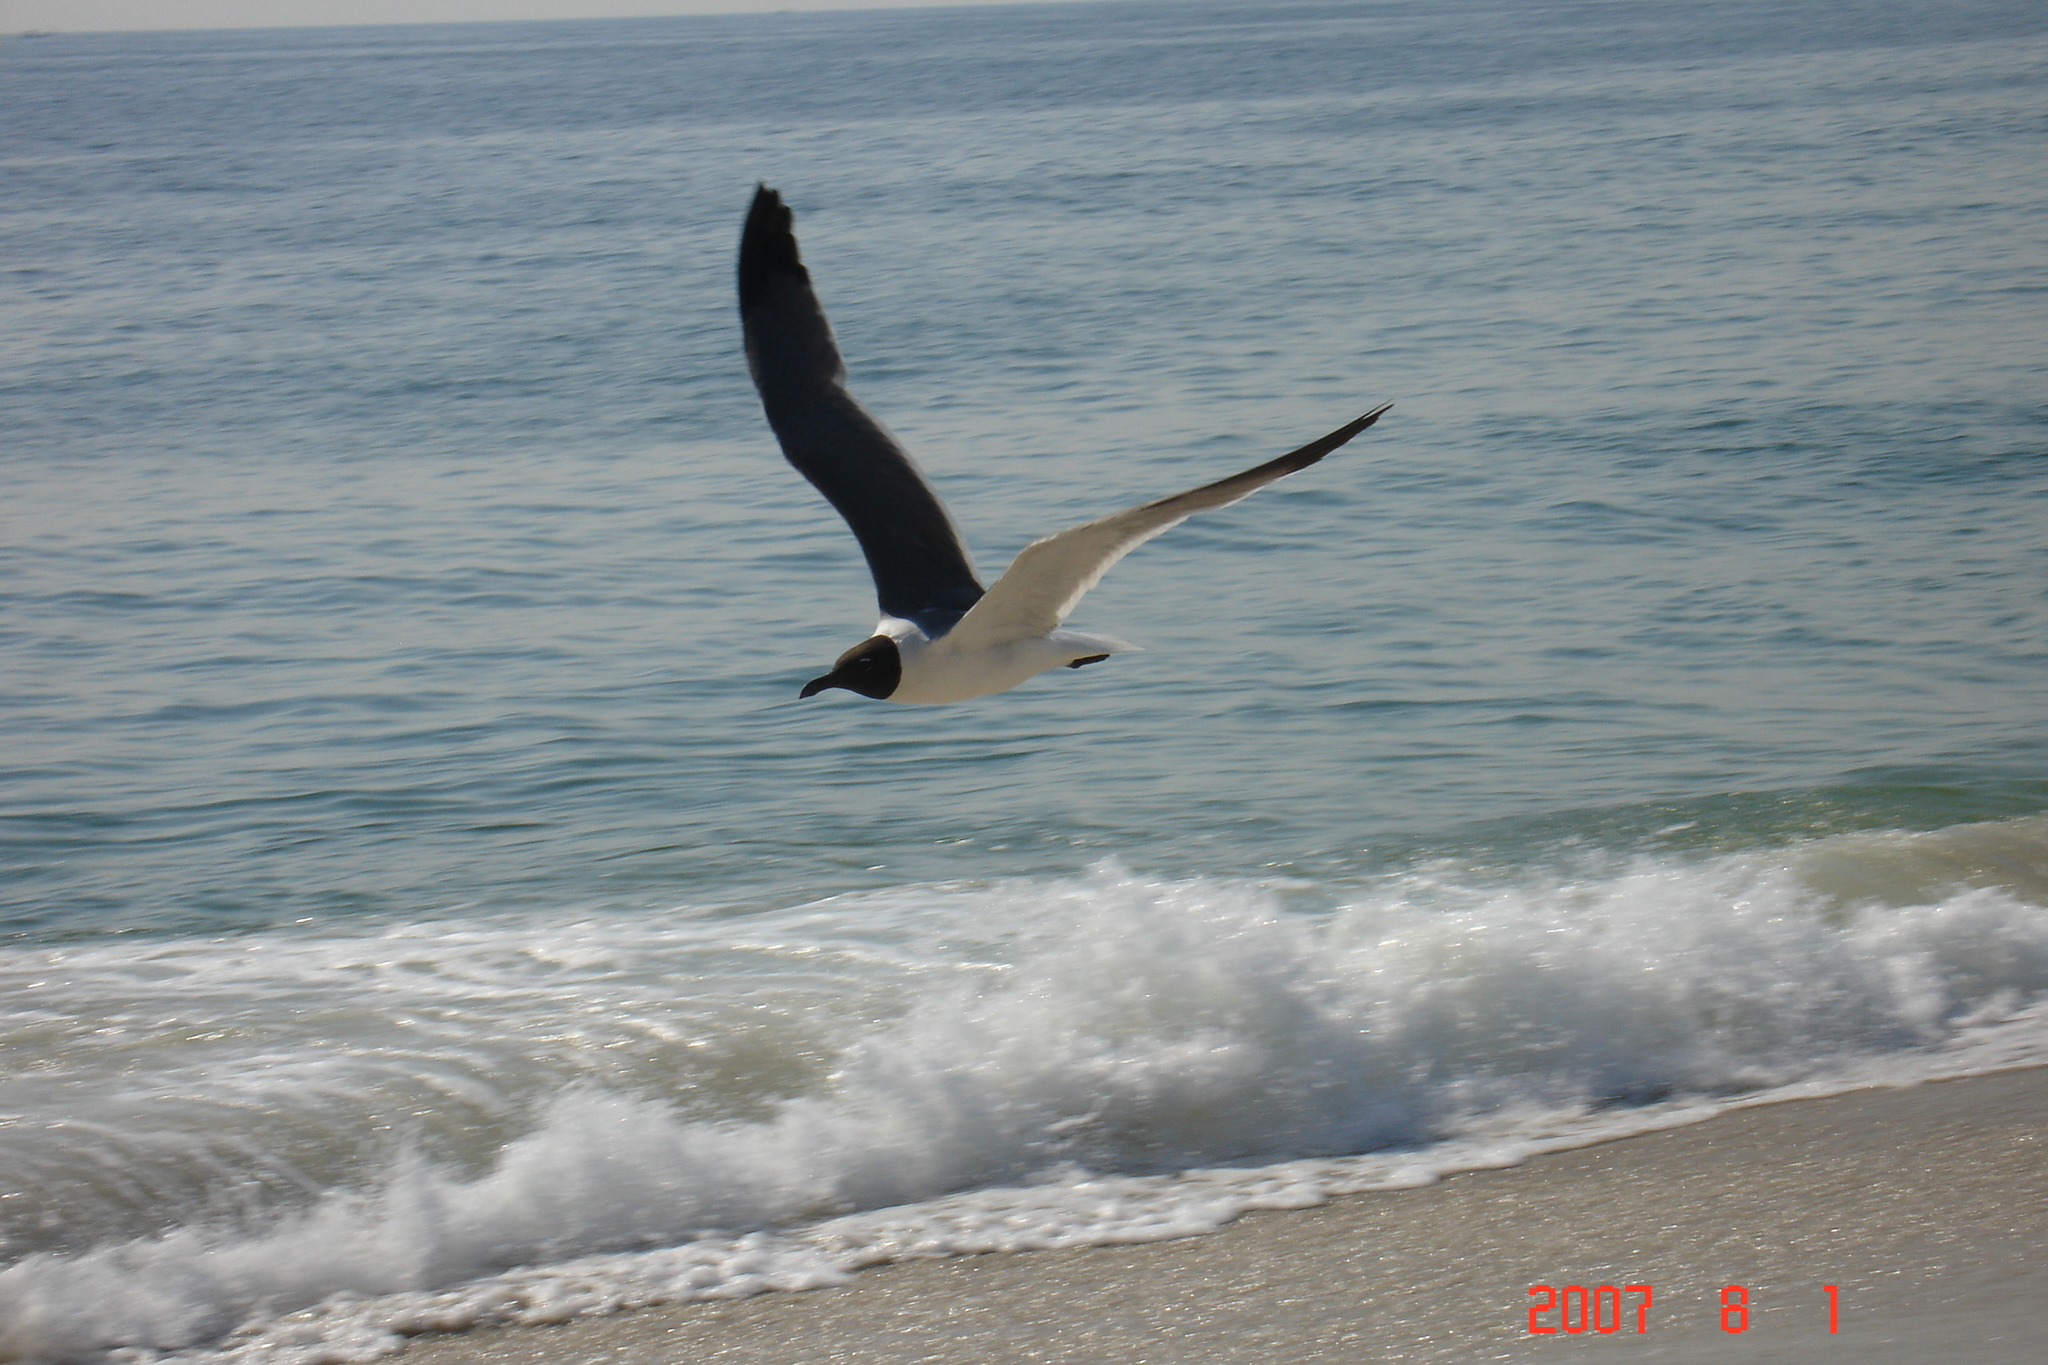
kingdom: Animalia
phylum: Chordata
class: Aves
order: Charadriiformes
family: Laridae
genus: Leucophaeus
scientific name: Leucophaeus atricilla
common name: Laughing gull
